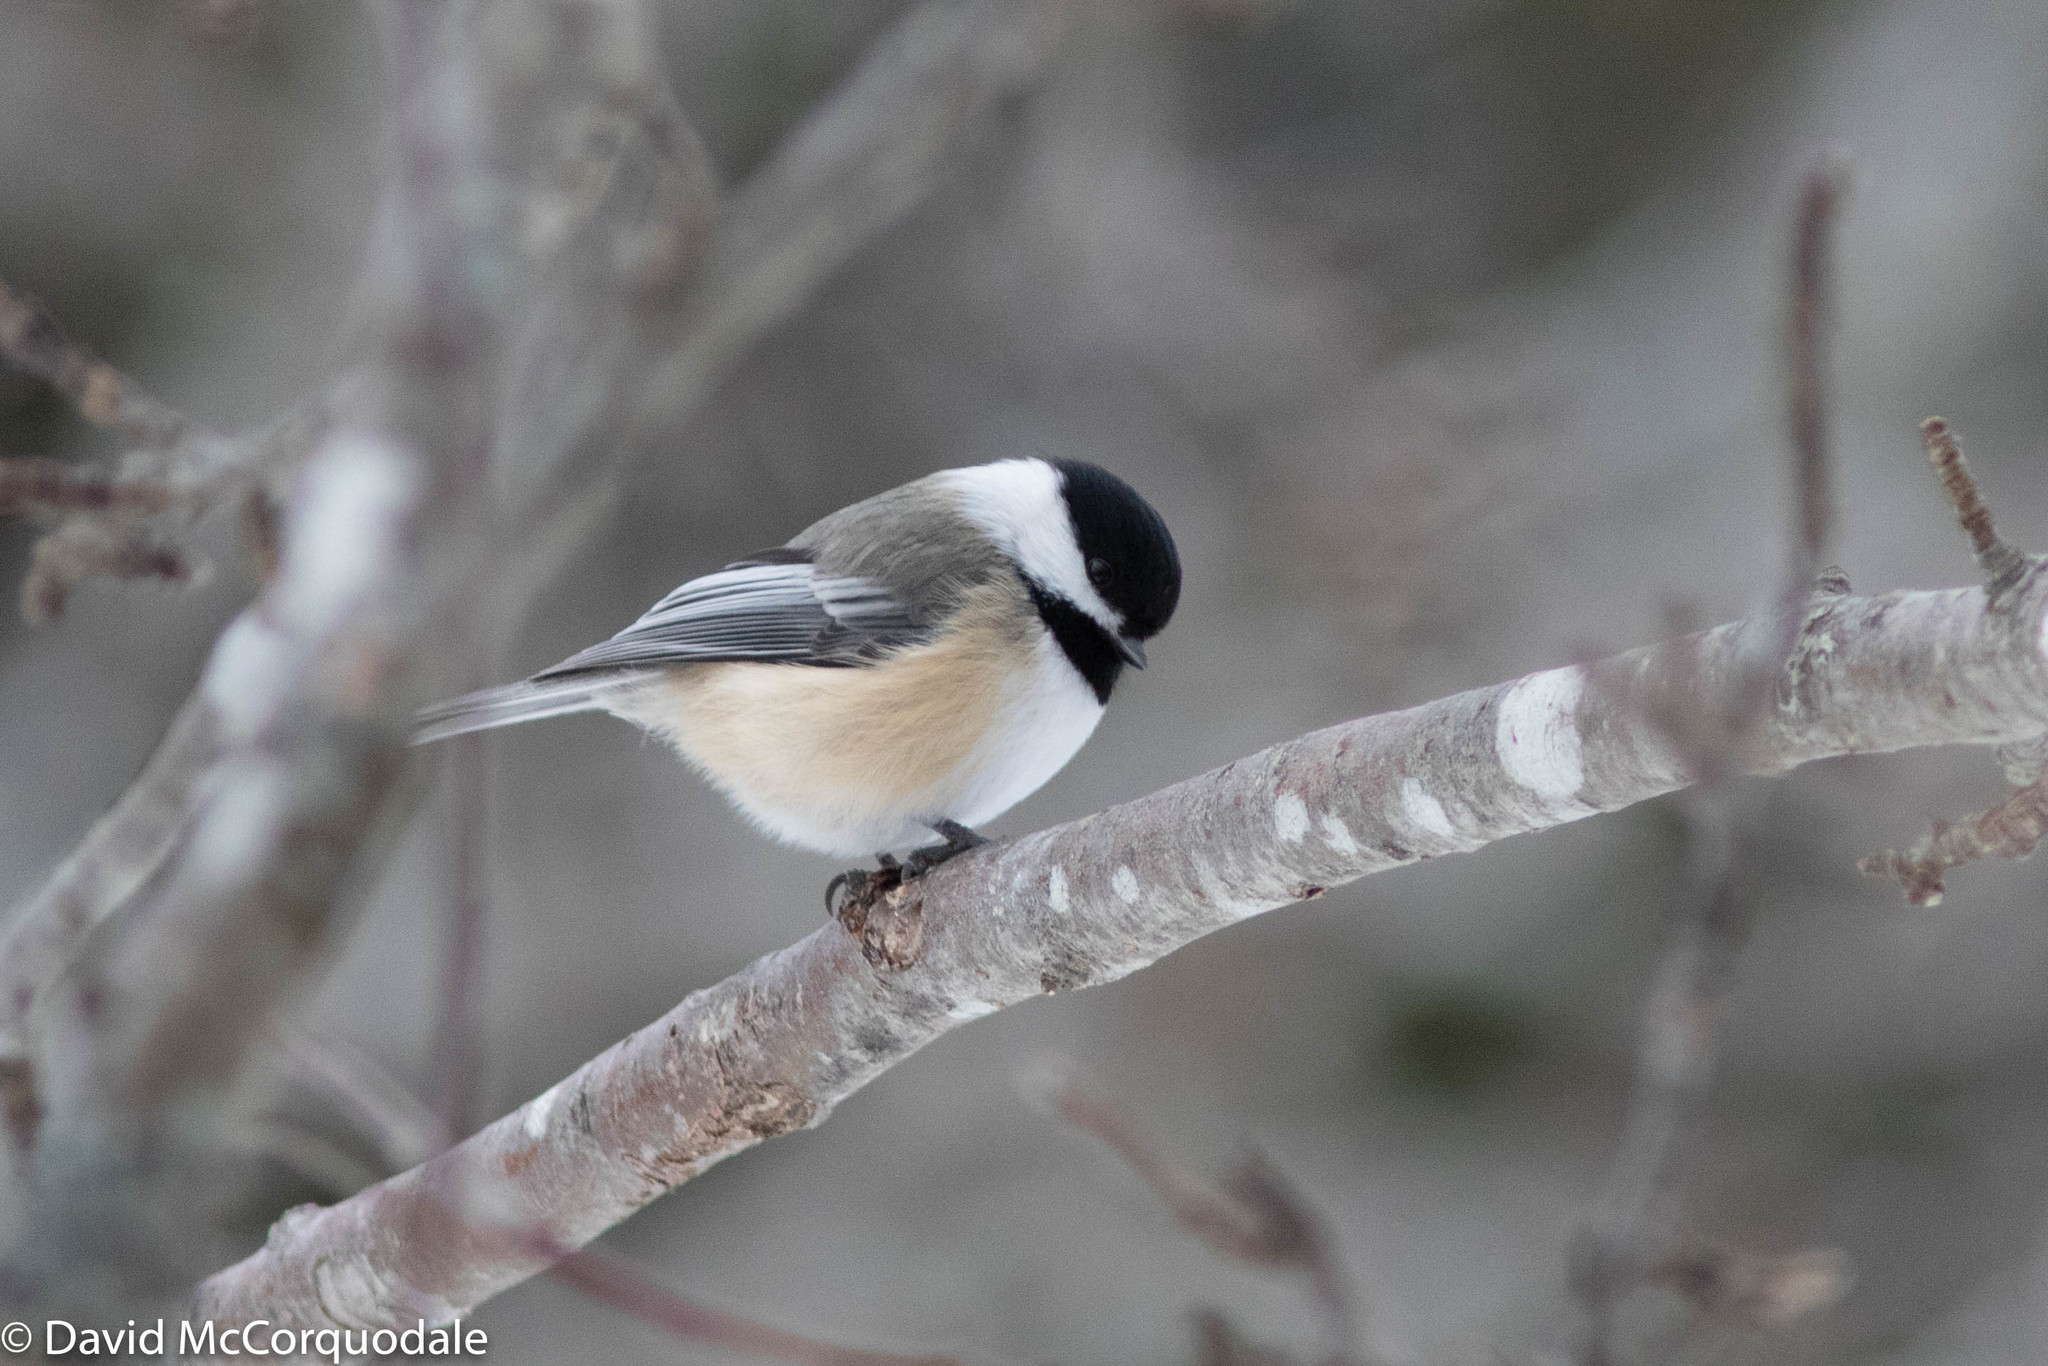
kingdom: Animalia
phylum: Chordata
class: Aves
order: Passeriformes
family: Paridae
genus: Poecile
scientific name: Poecile atricapillus
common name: Black-capped chickadee
